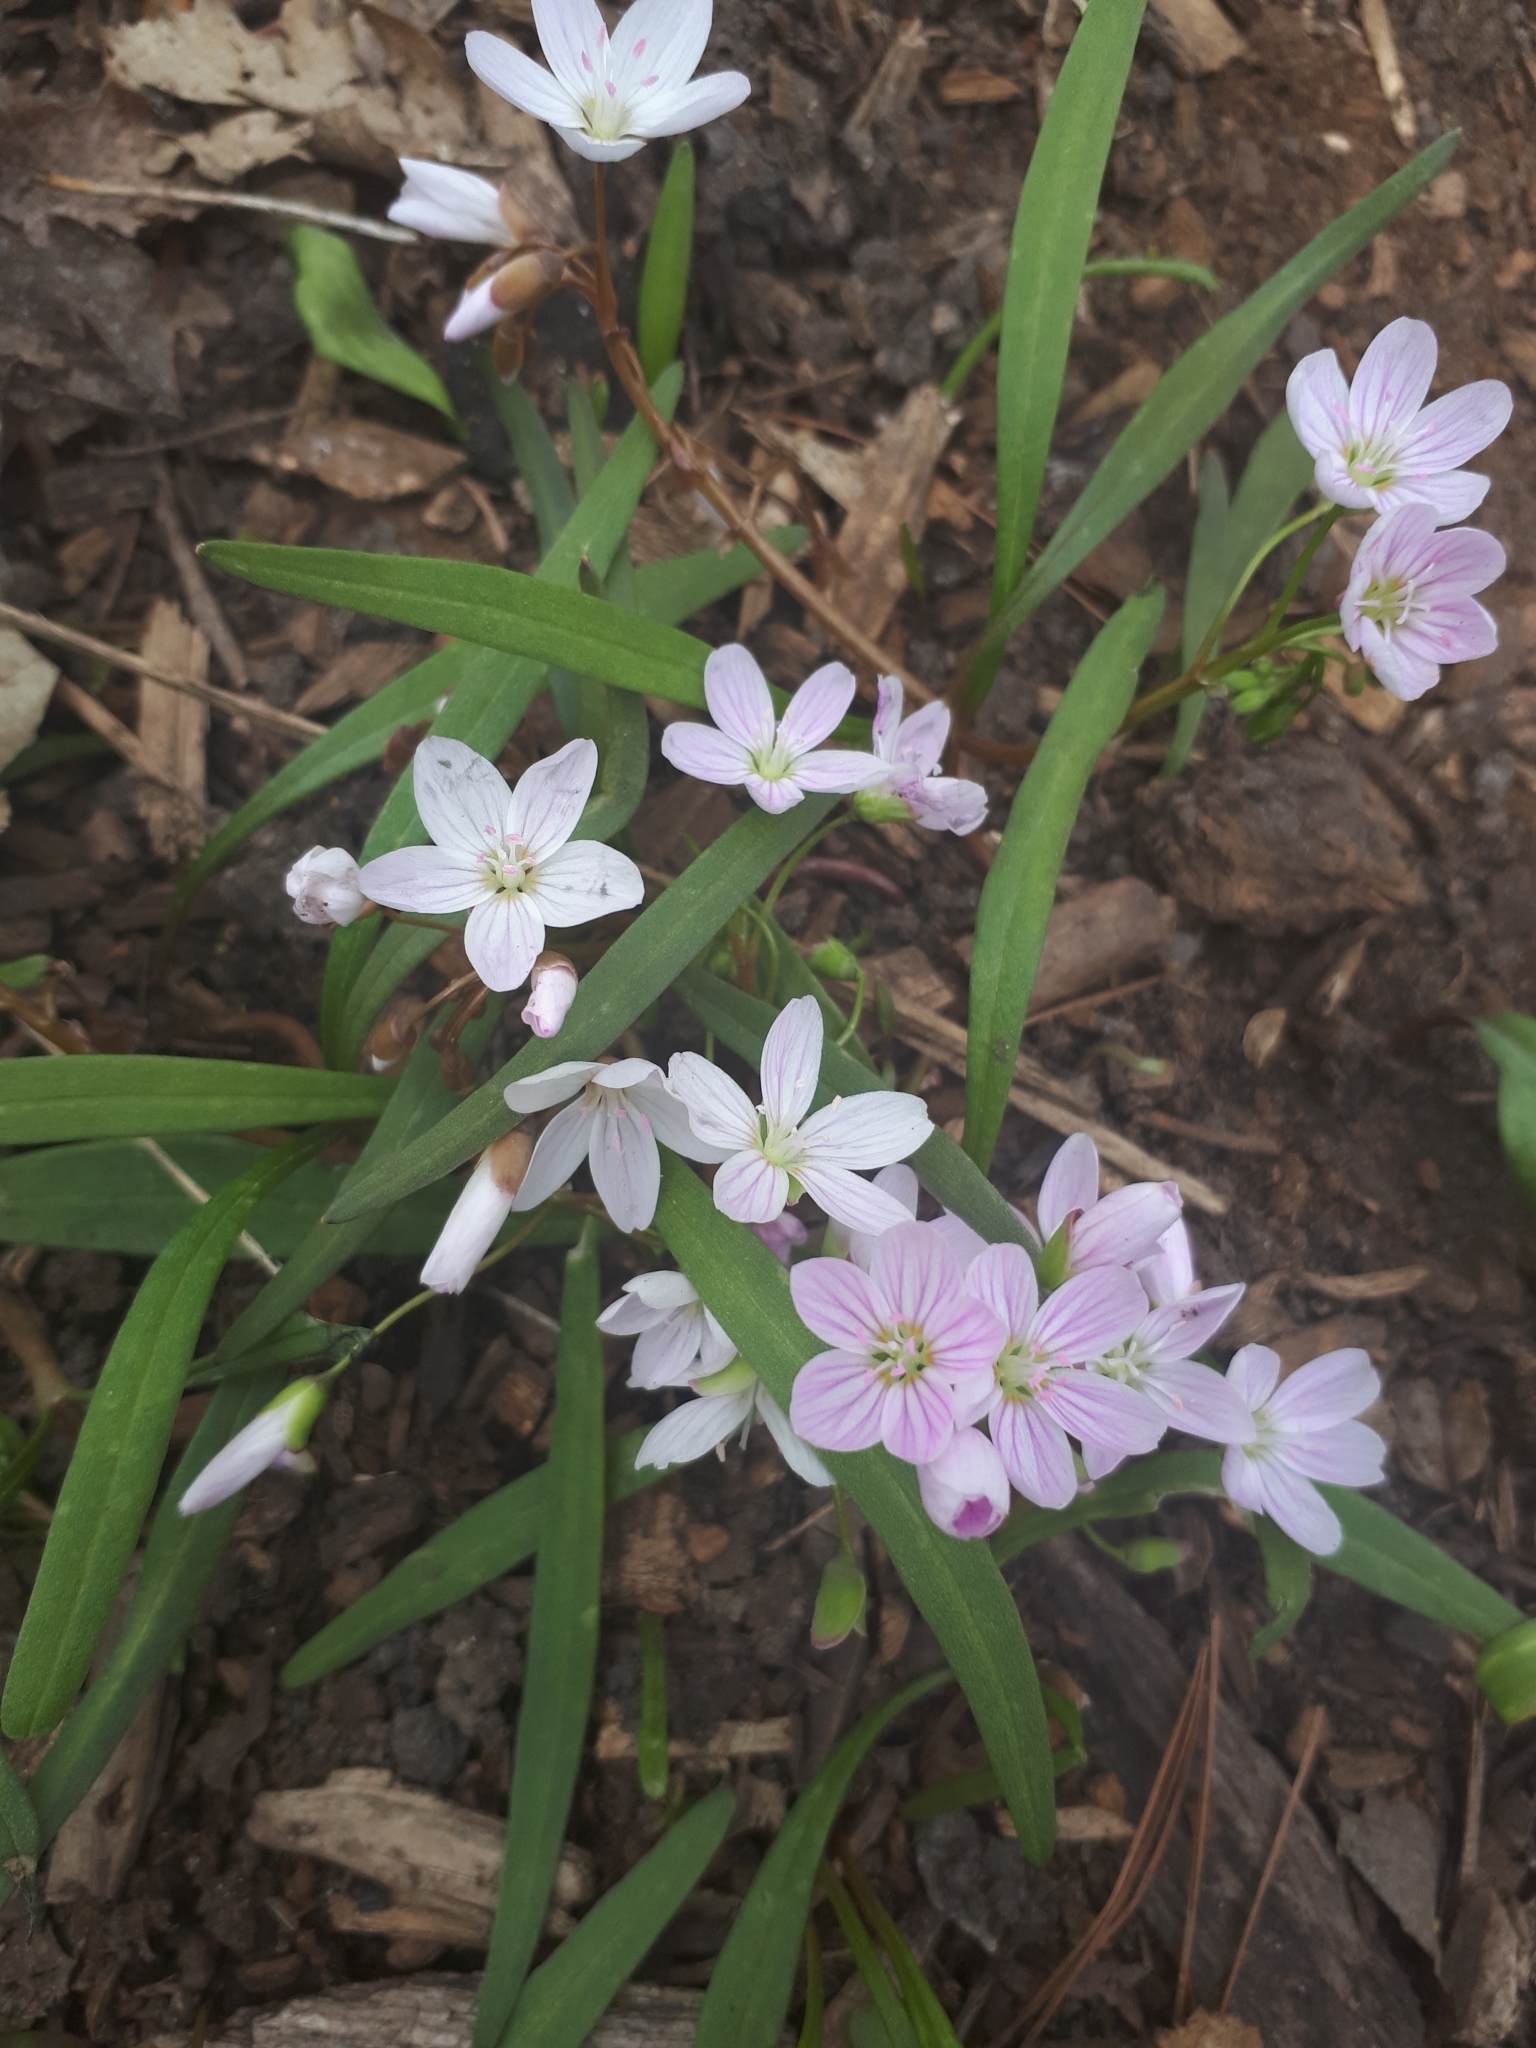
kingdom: Plantae
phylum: Tracheophyta
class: Magnoliopsida
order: Caryophyllales
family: Montiaceae
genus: Claytonia
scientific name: Claytonia virginica
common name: Virginia springbeauty
